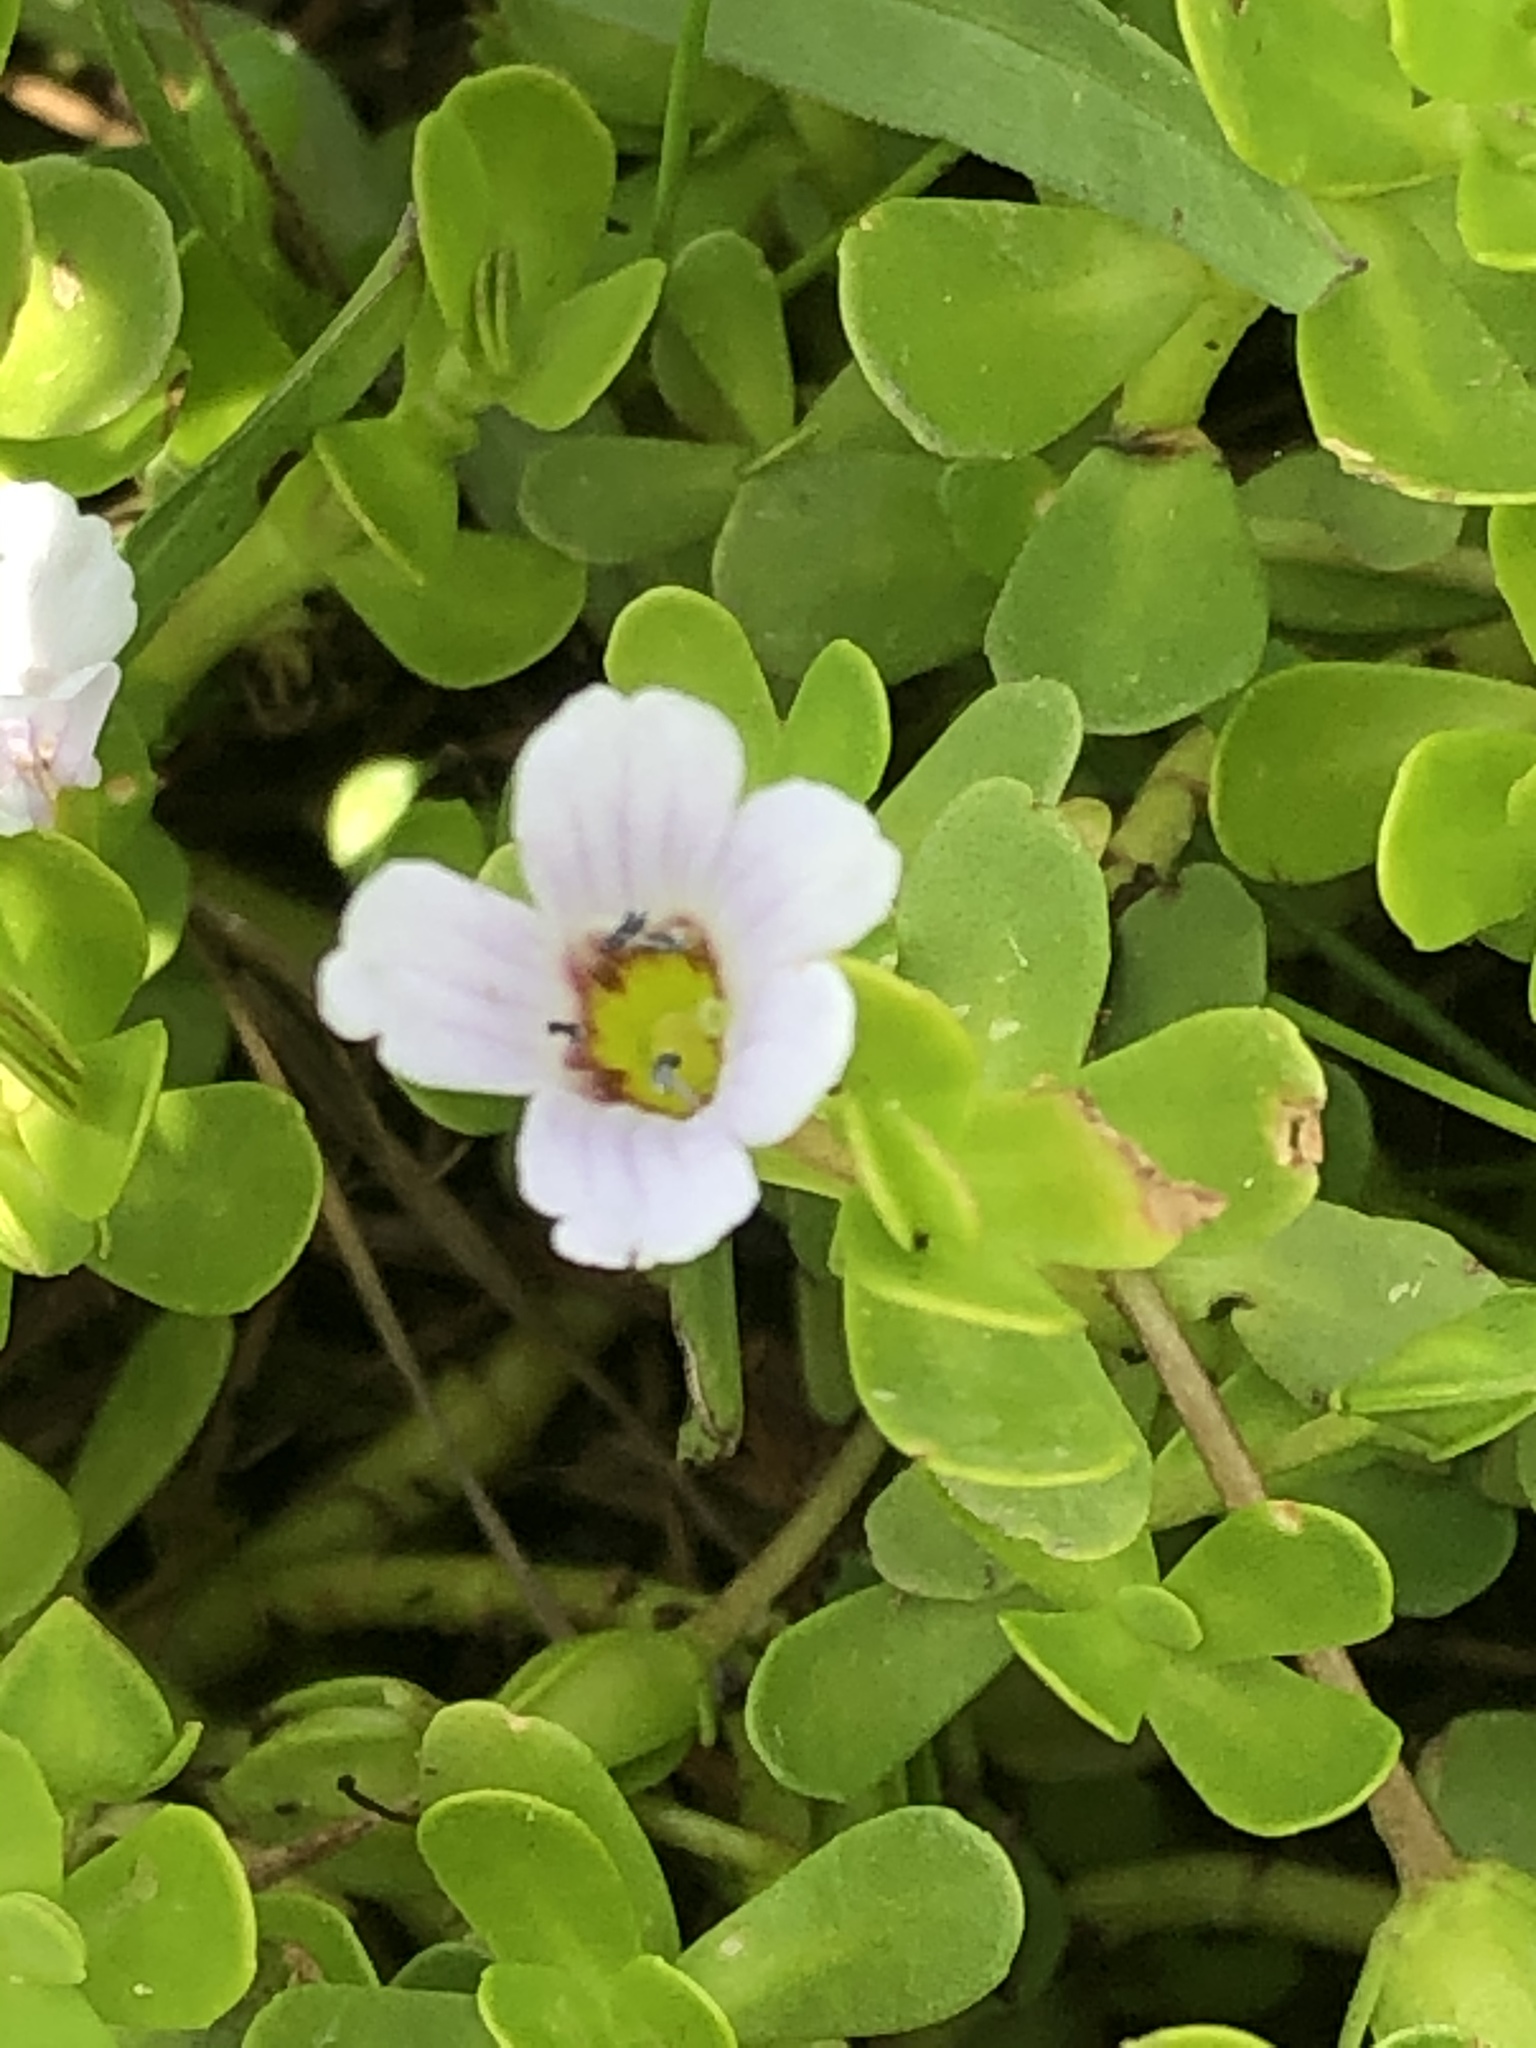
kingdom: Plantae
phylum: Tracheophyta
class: Magnoliopsida
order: Lamiales
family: Plantaginaceae
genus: Bacopa
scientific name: Bacopa monnieri
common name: Indian-pennywort
